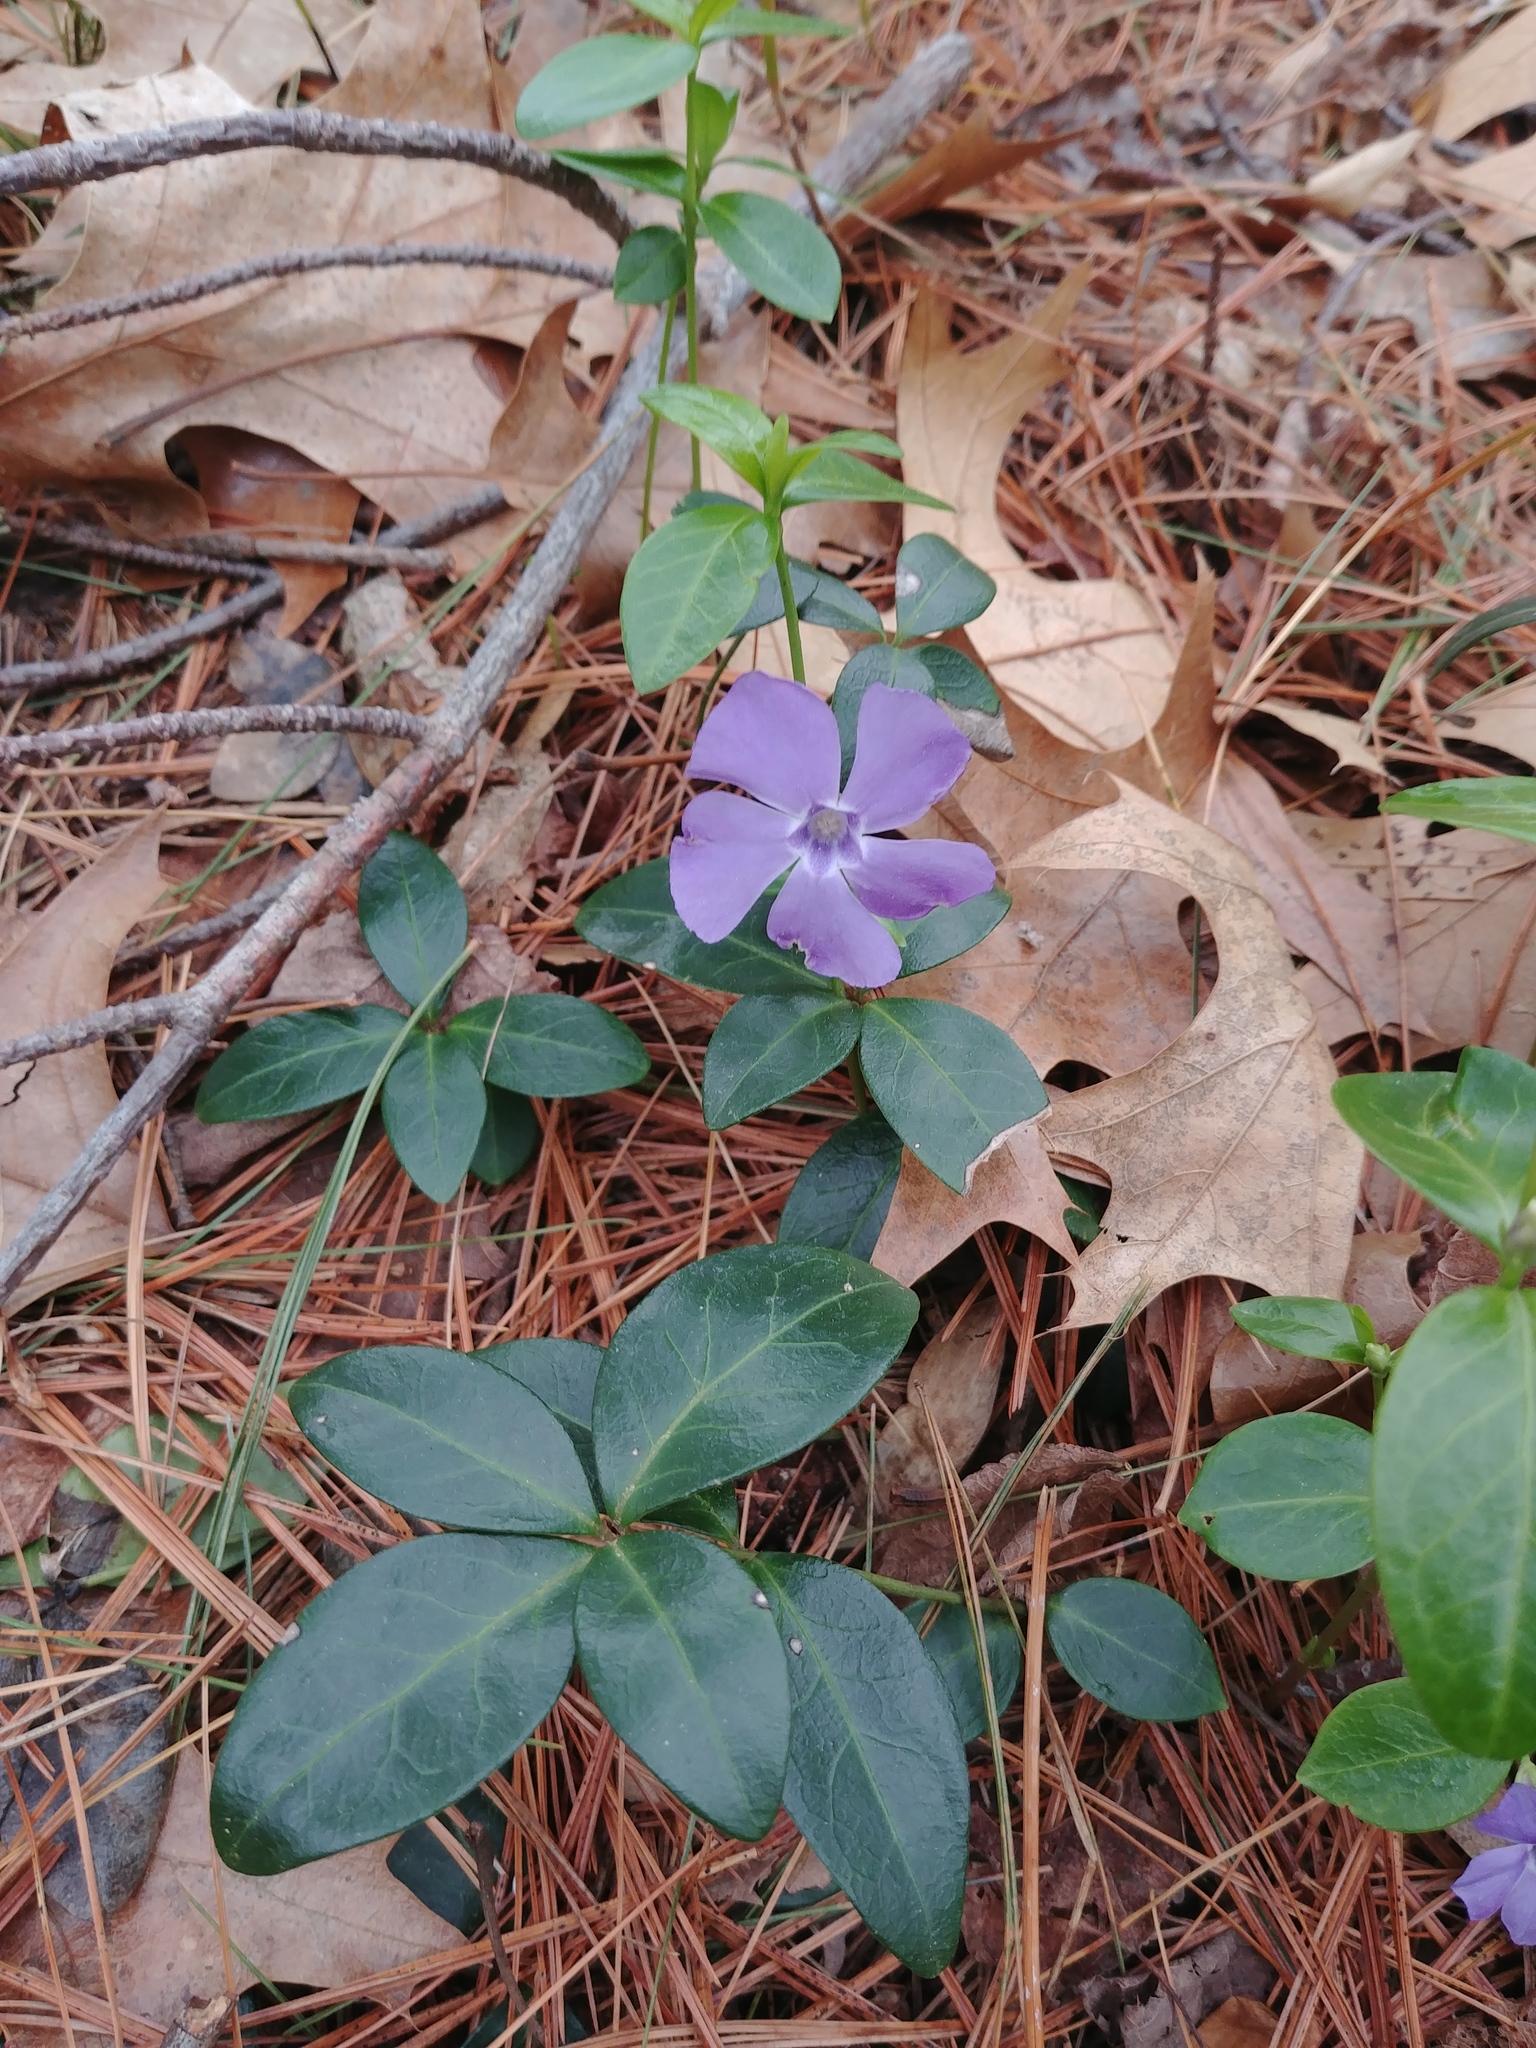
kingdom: Plantae
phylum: Tracheophyta
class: Magnoliopsida
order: Gentianales
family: Apocynaceae
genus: Vinca
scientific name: Vinca minor
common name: Lesser periwinkle
